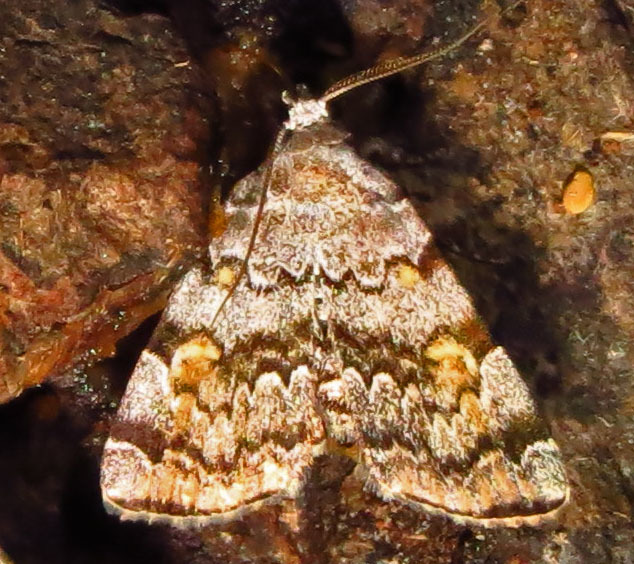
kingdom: Animalia
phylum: Arthropoda
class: Insecta
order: Lepidoptera
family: Erebidae
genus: Idia
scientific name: Idia americalis
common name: American idia moth
